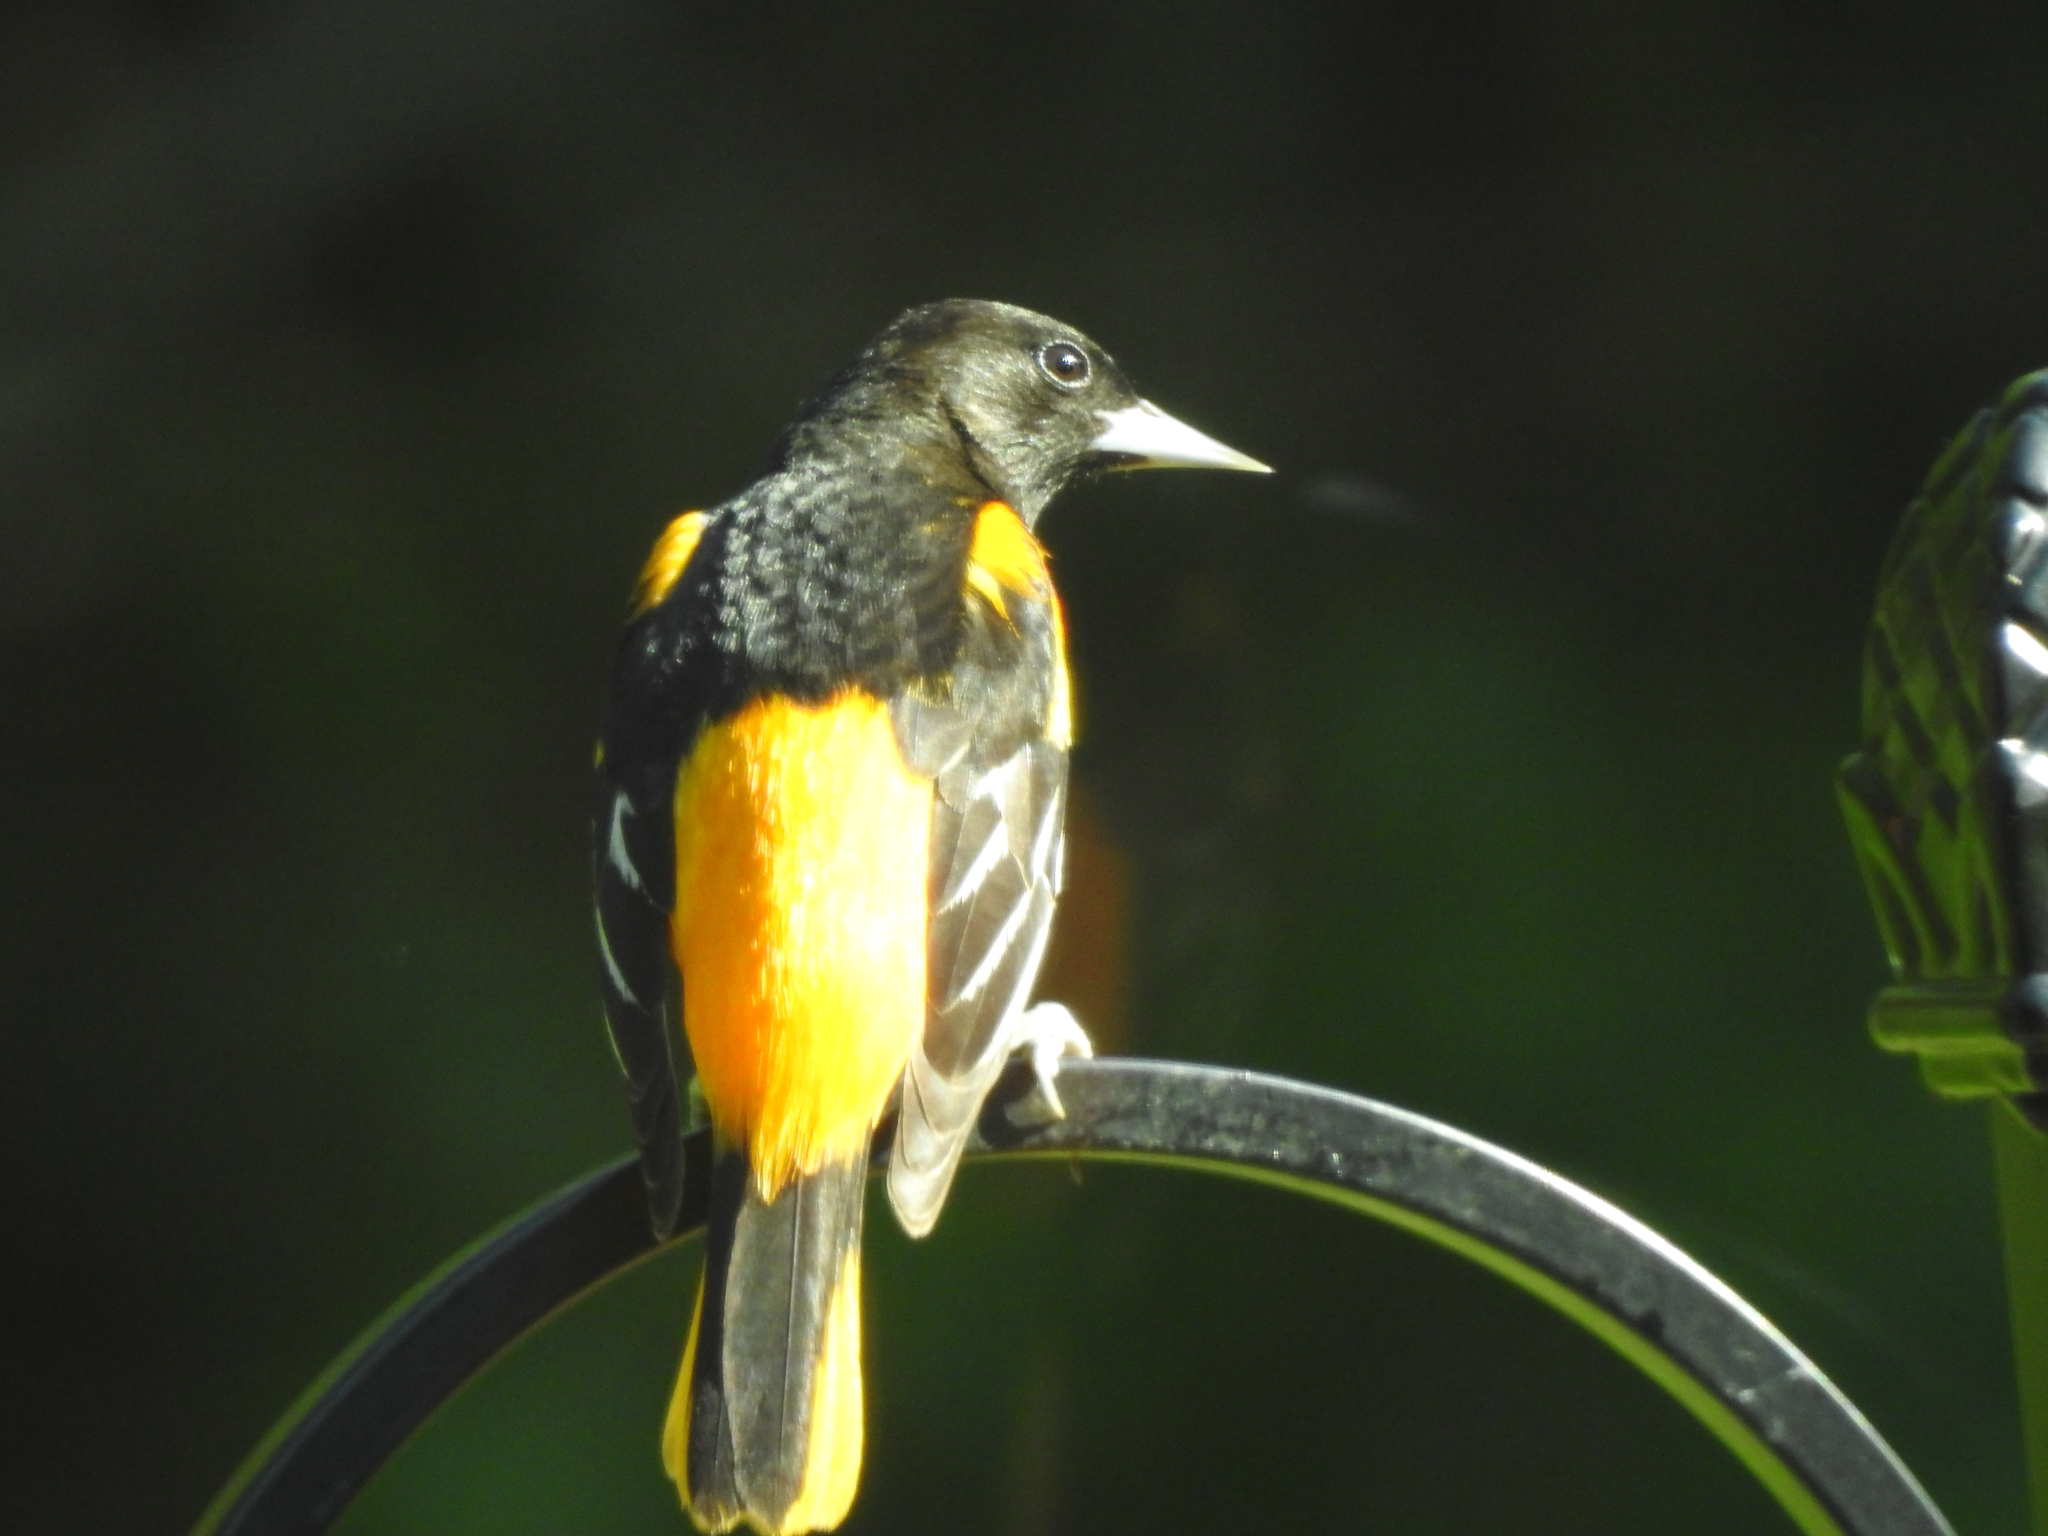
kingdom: Animalia
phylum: Chordata
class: Aves
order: Passeriformes
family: Icteridae
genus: Icterus
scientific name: Icterus galbula
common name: Baltimore oriole
